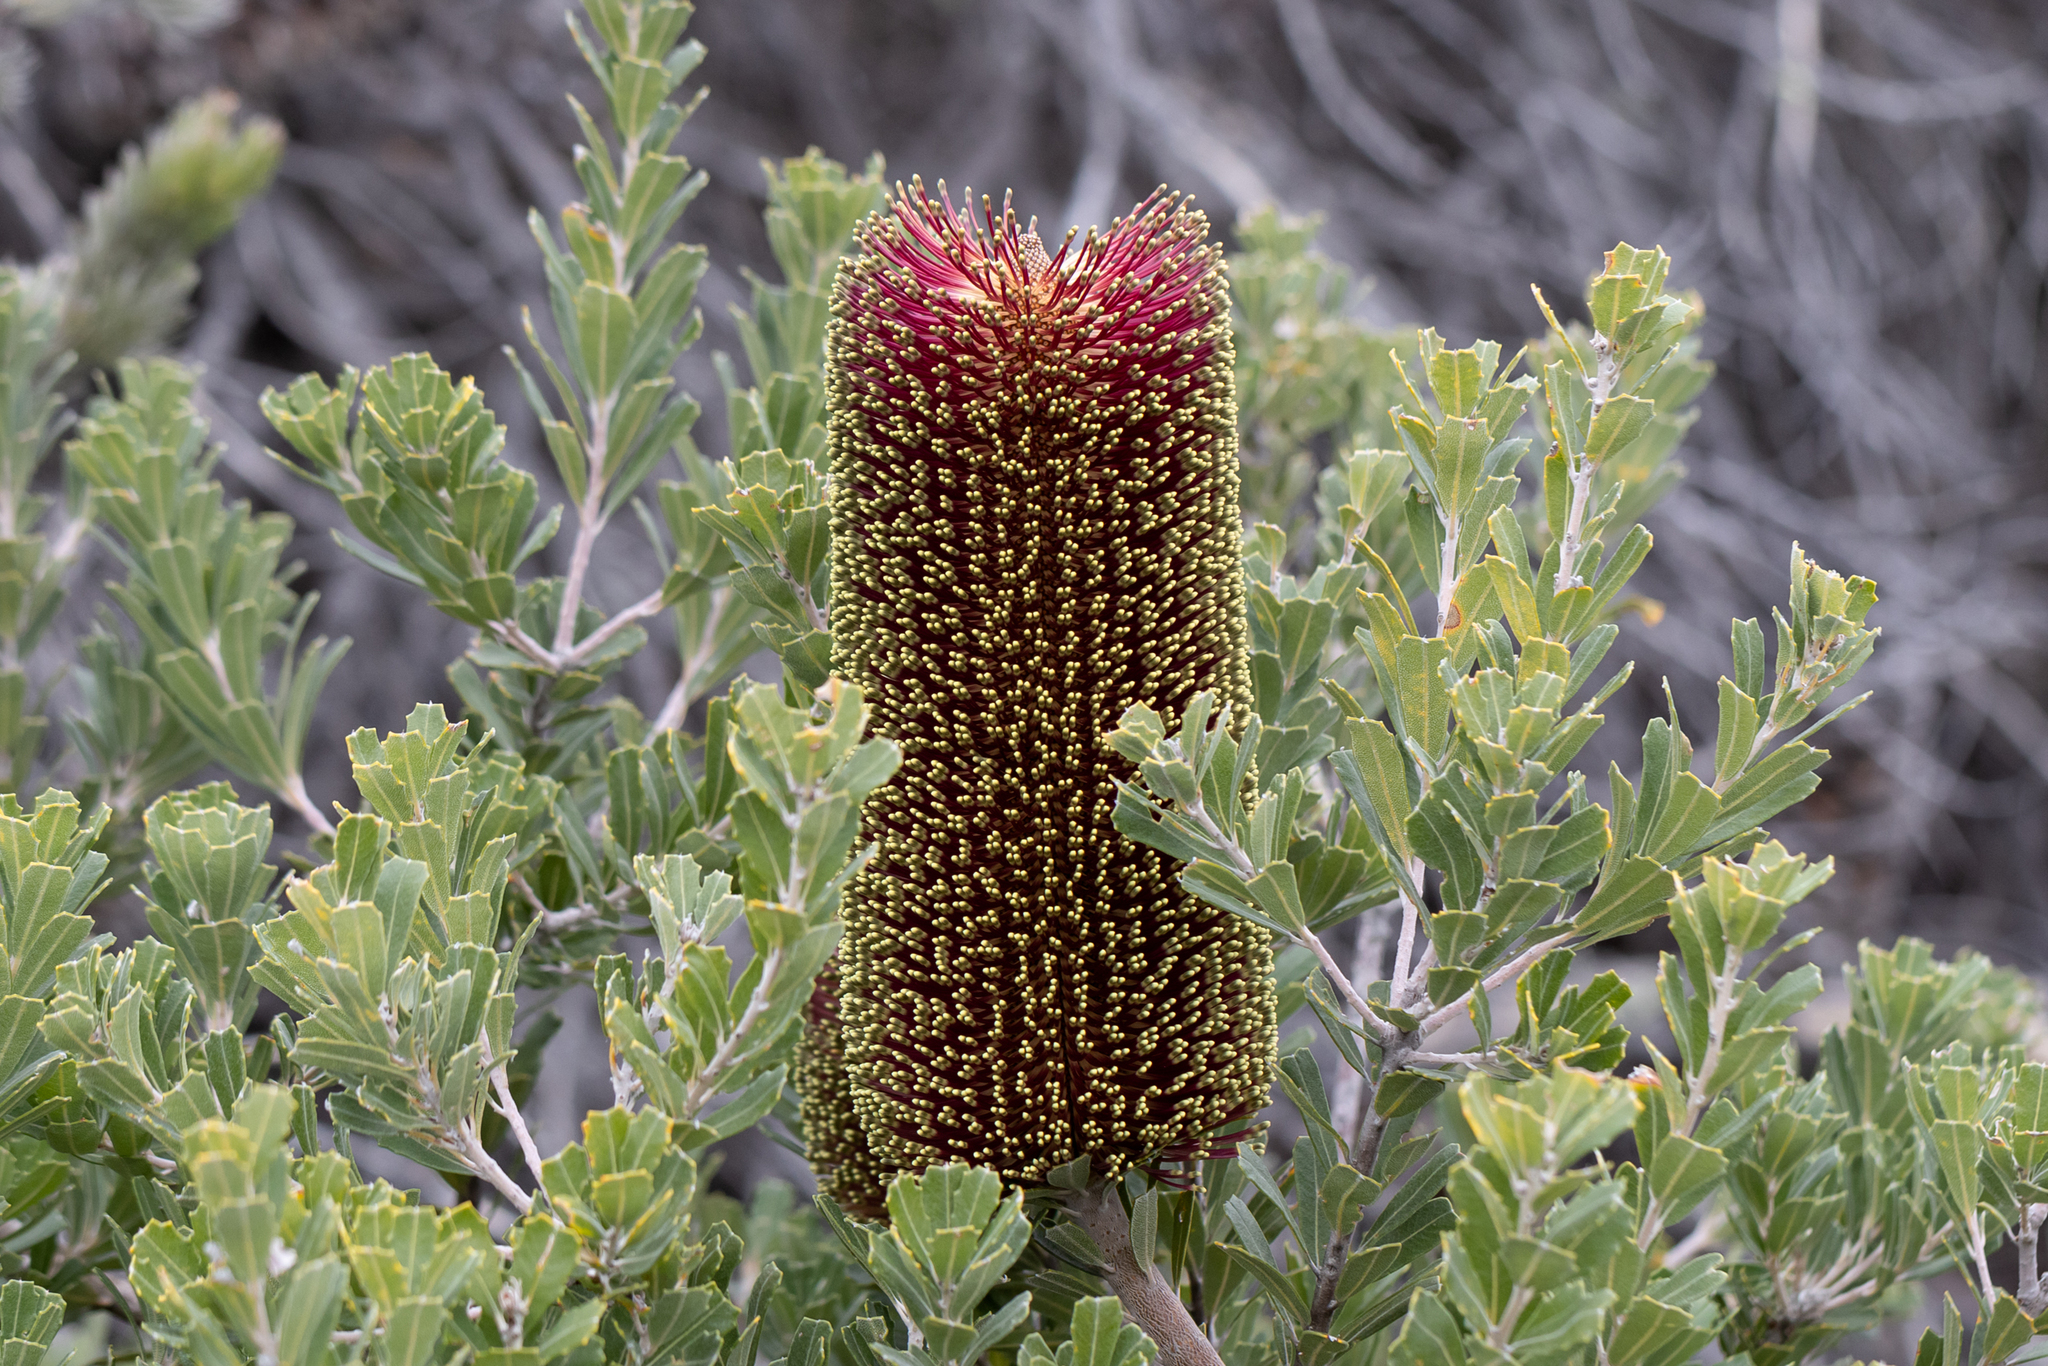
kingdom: Plantae
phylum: Tracheophyta
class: Magnoliopsida
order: Proteales
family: Proteaceae
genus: Banksia
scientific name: Banksia praemorsa
